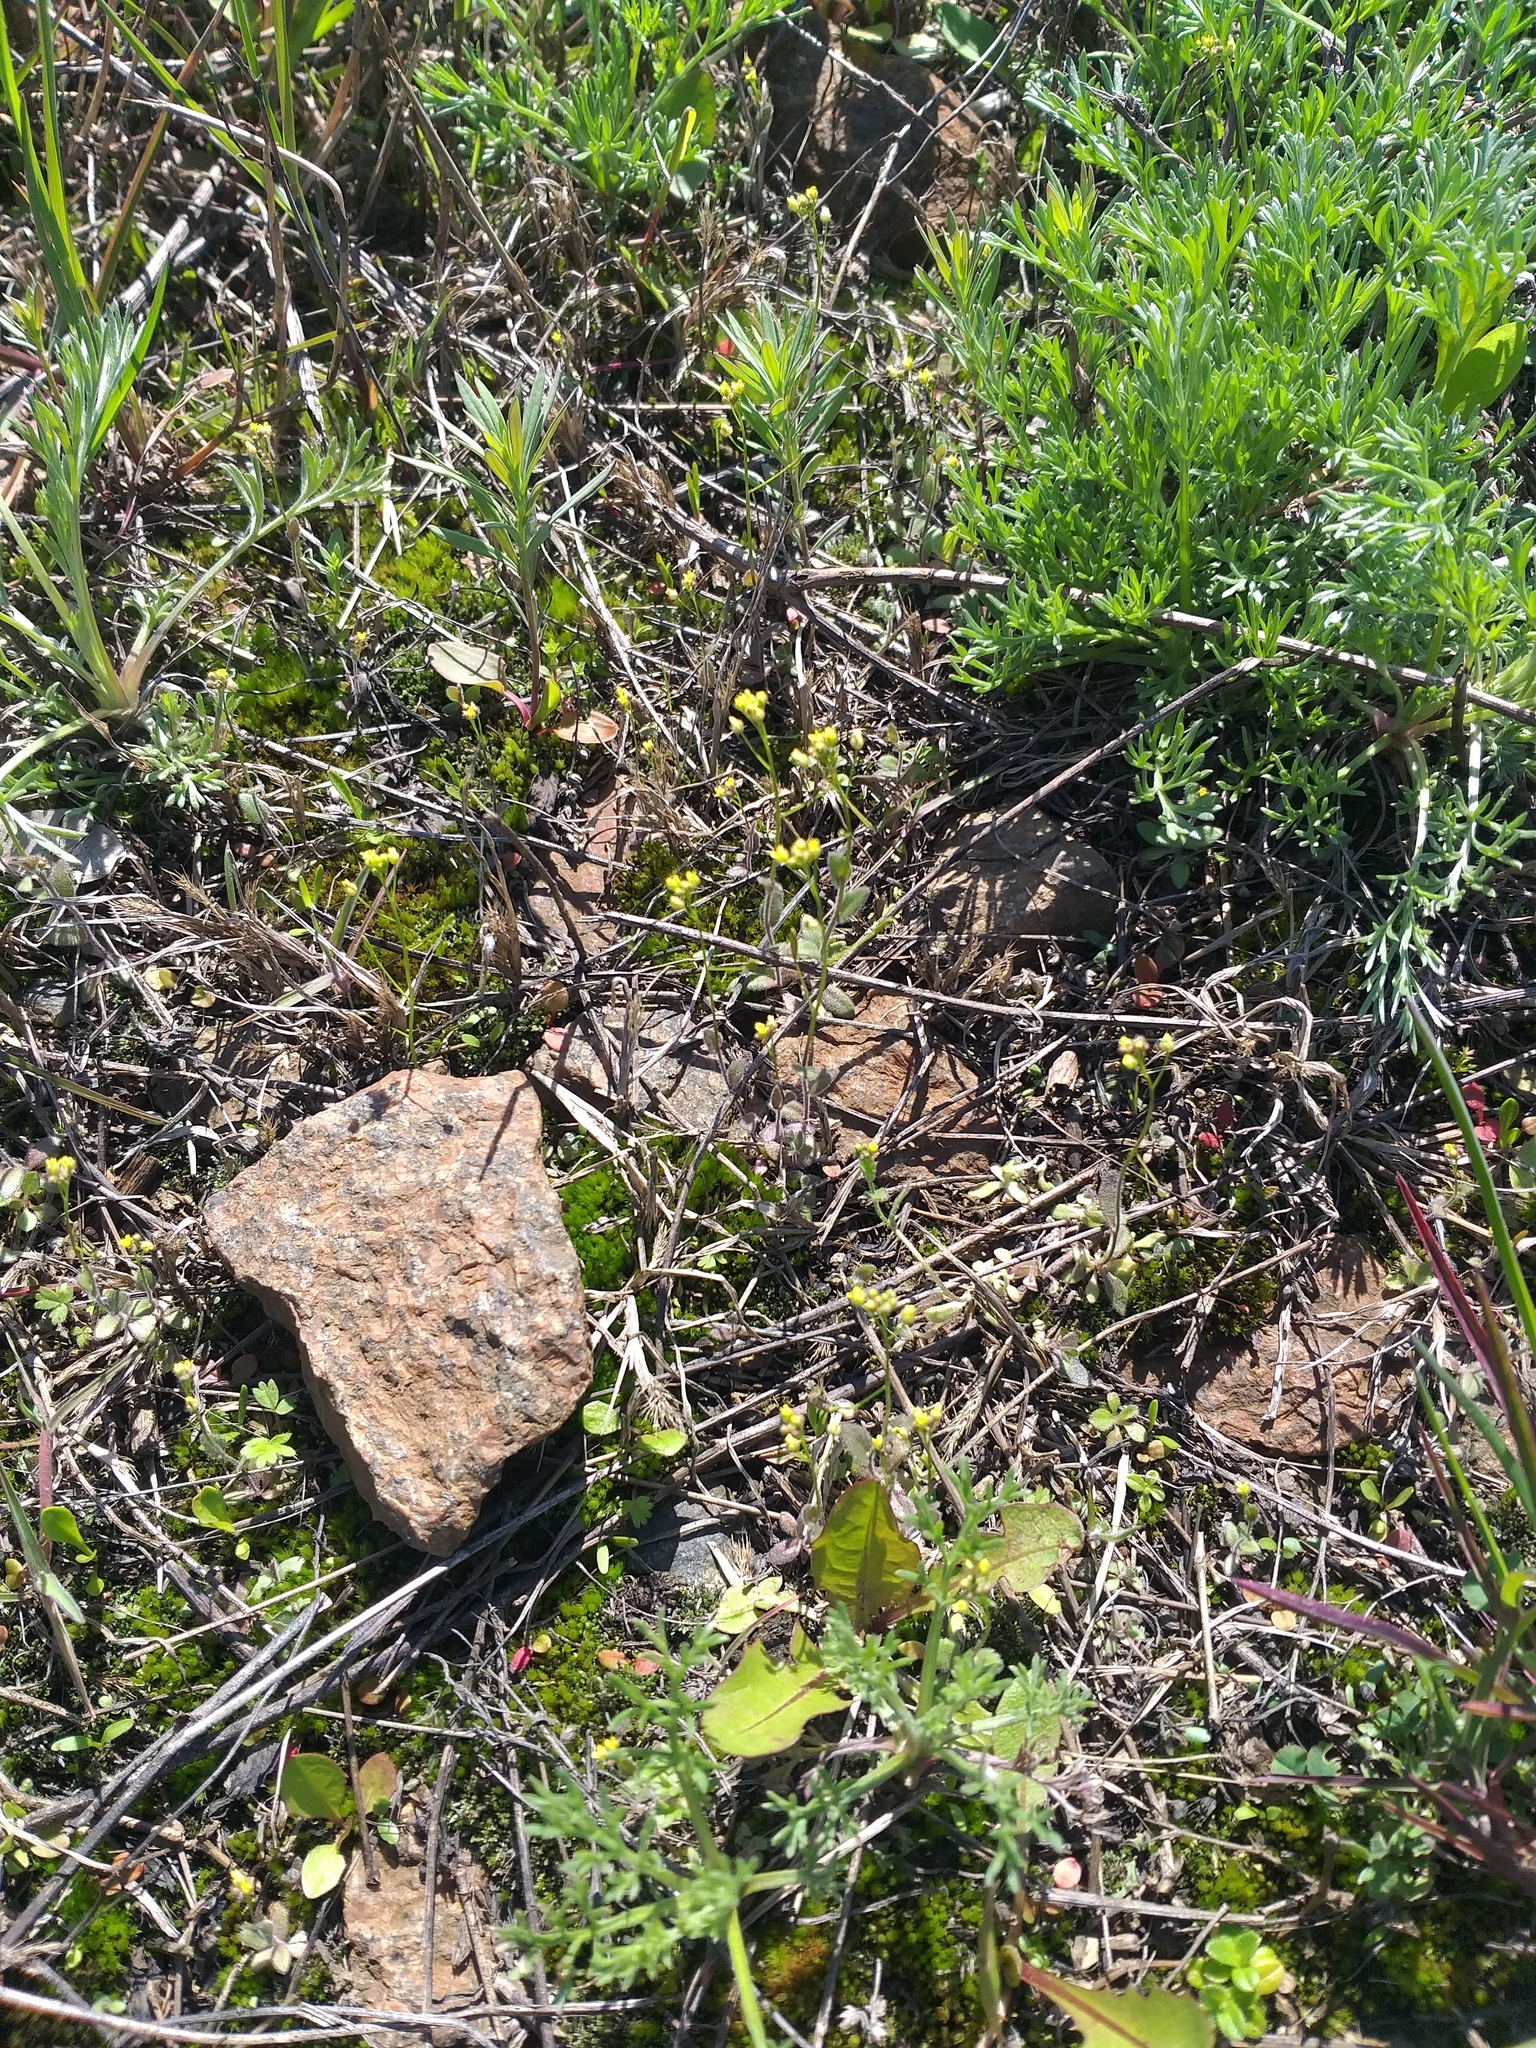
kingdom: Plantae
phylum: Tracheophyta
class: Magnoliopsida
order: Brassicales
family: Brassicaceae
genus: Draba
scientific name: Draba nemorosa
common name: Wood whitlow-grass
